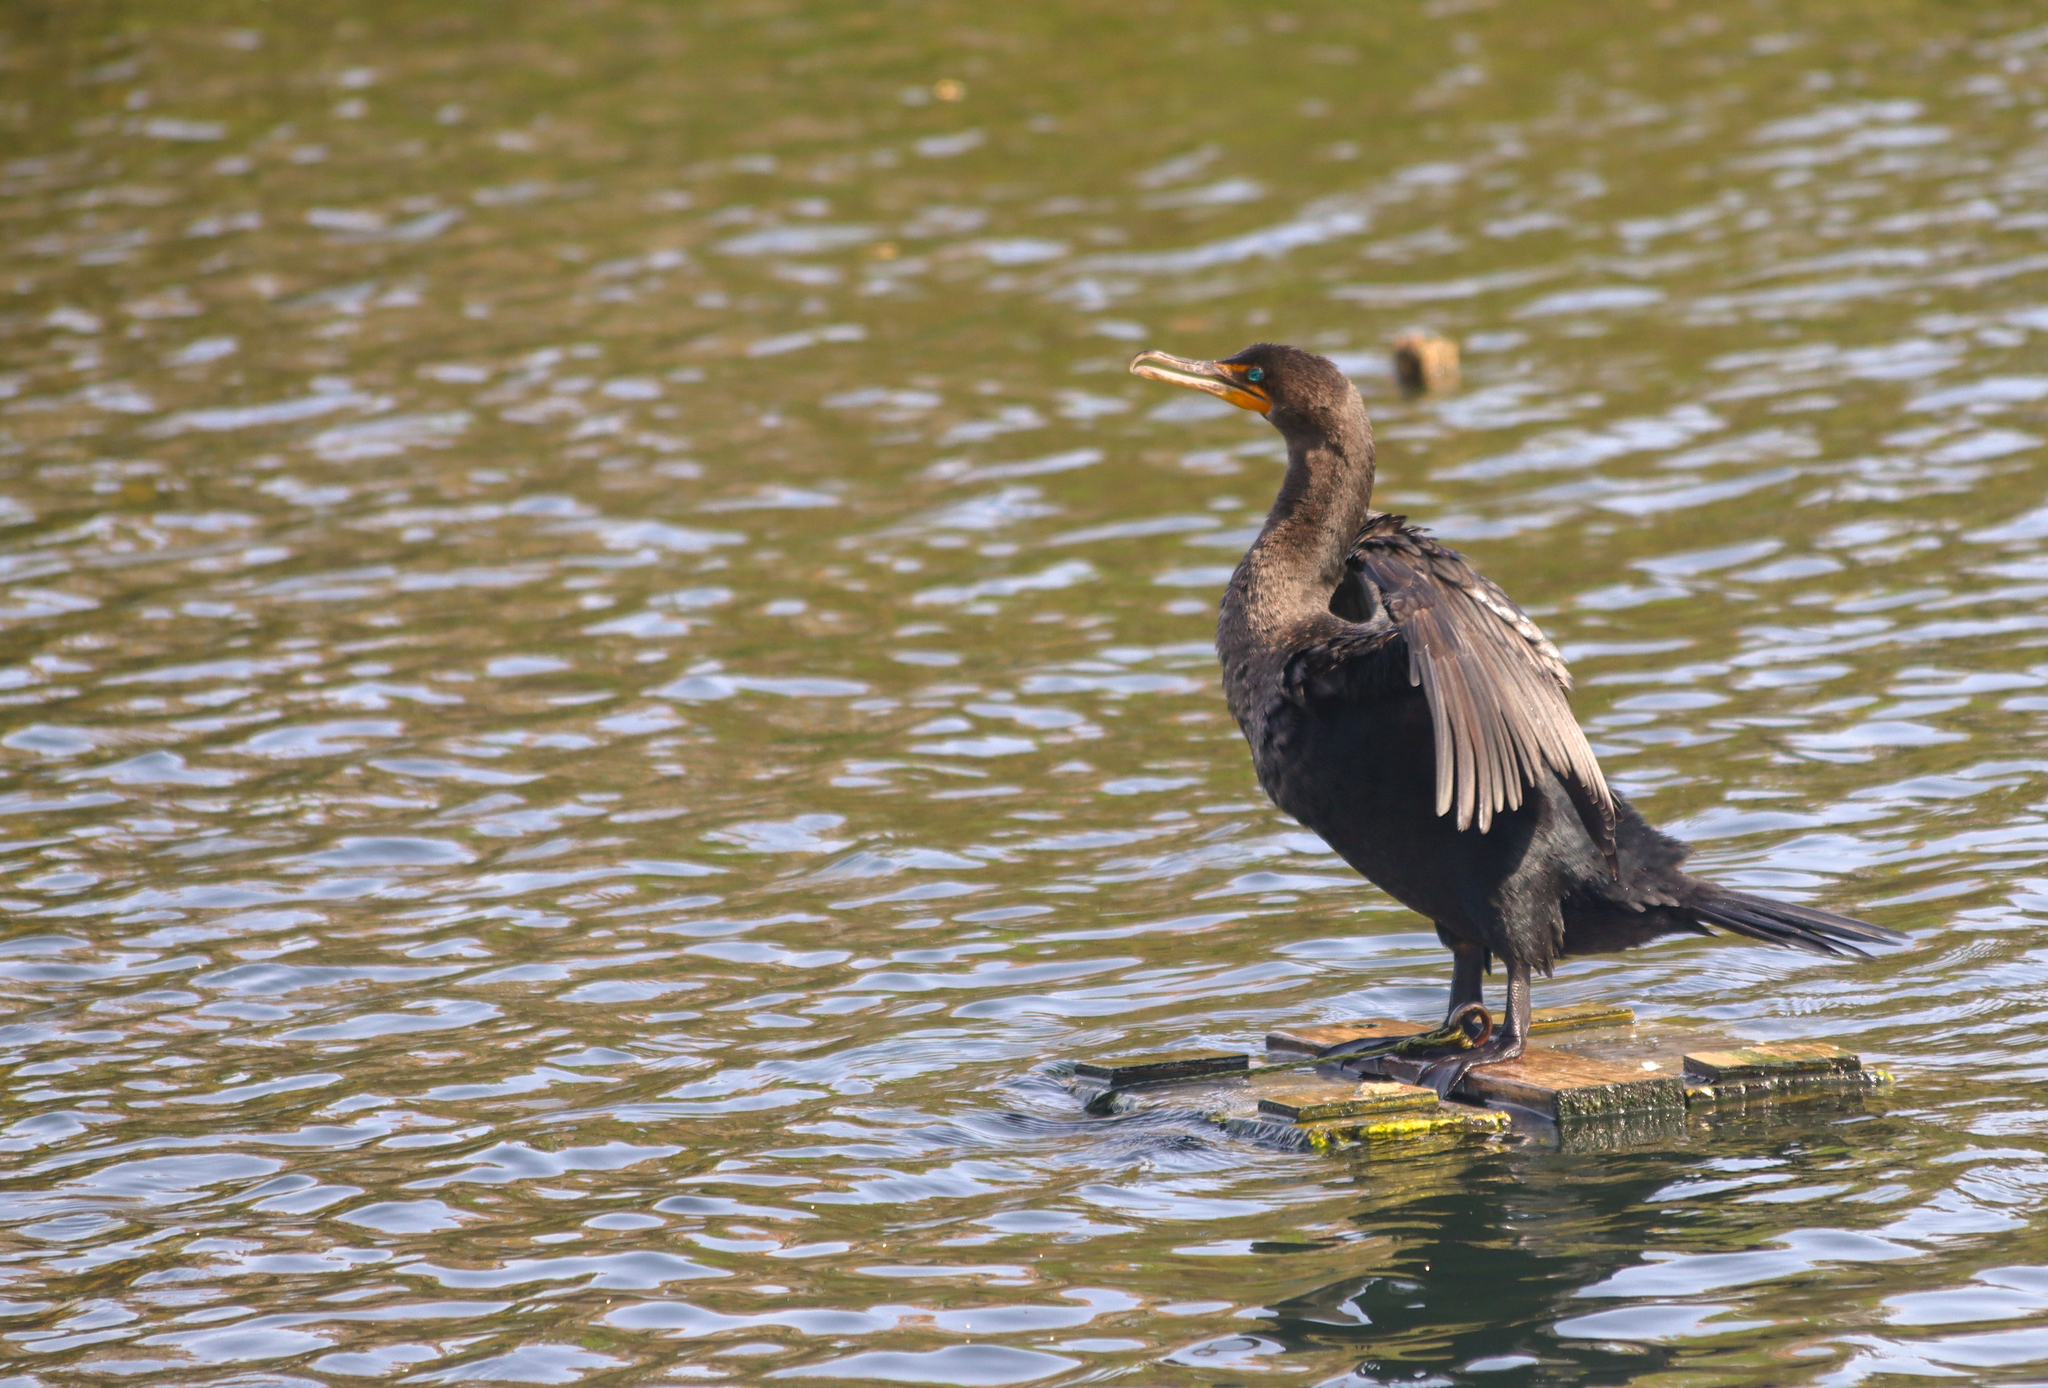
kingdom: Animalia
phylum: Chordata
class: Aves
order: Suliformes
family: Phalacrocoracidae
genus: Phalacrocorax
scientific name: Phalacrocorax auritus
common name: Double-crested cormorant
